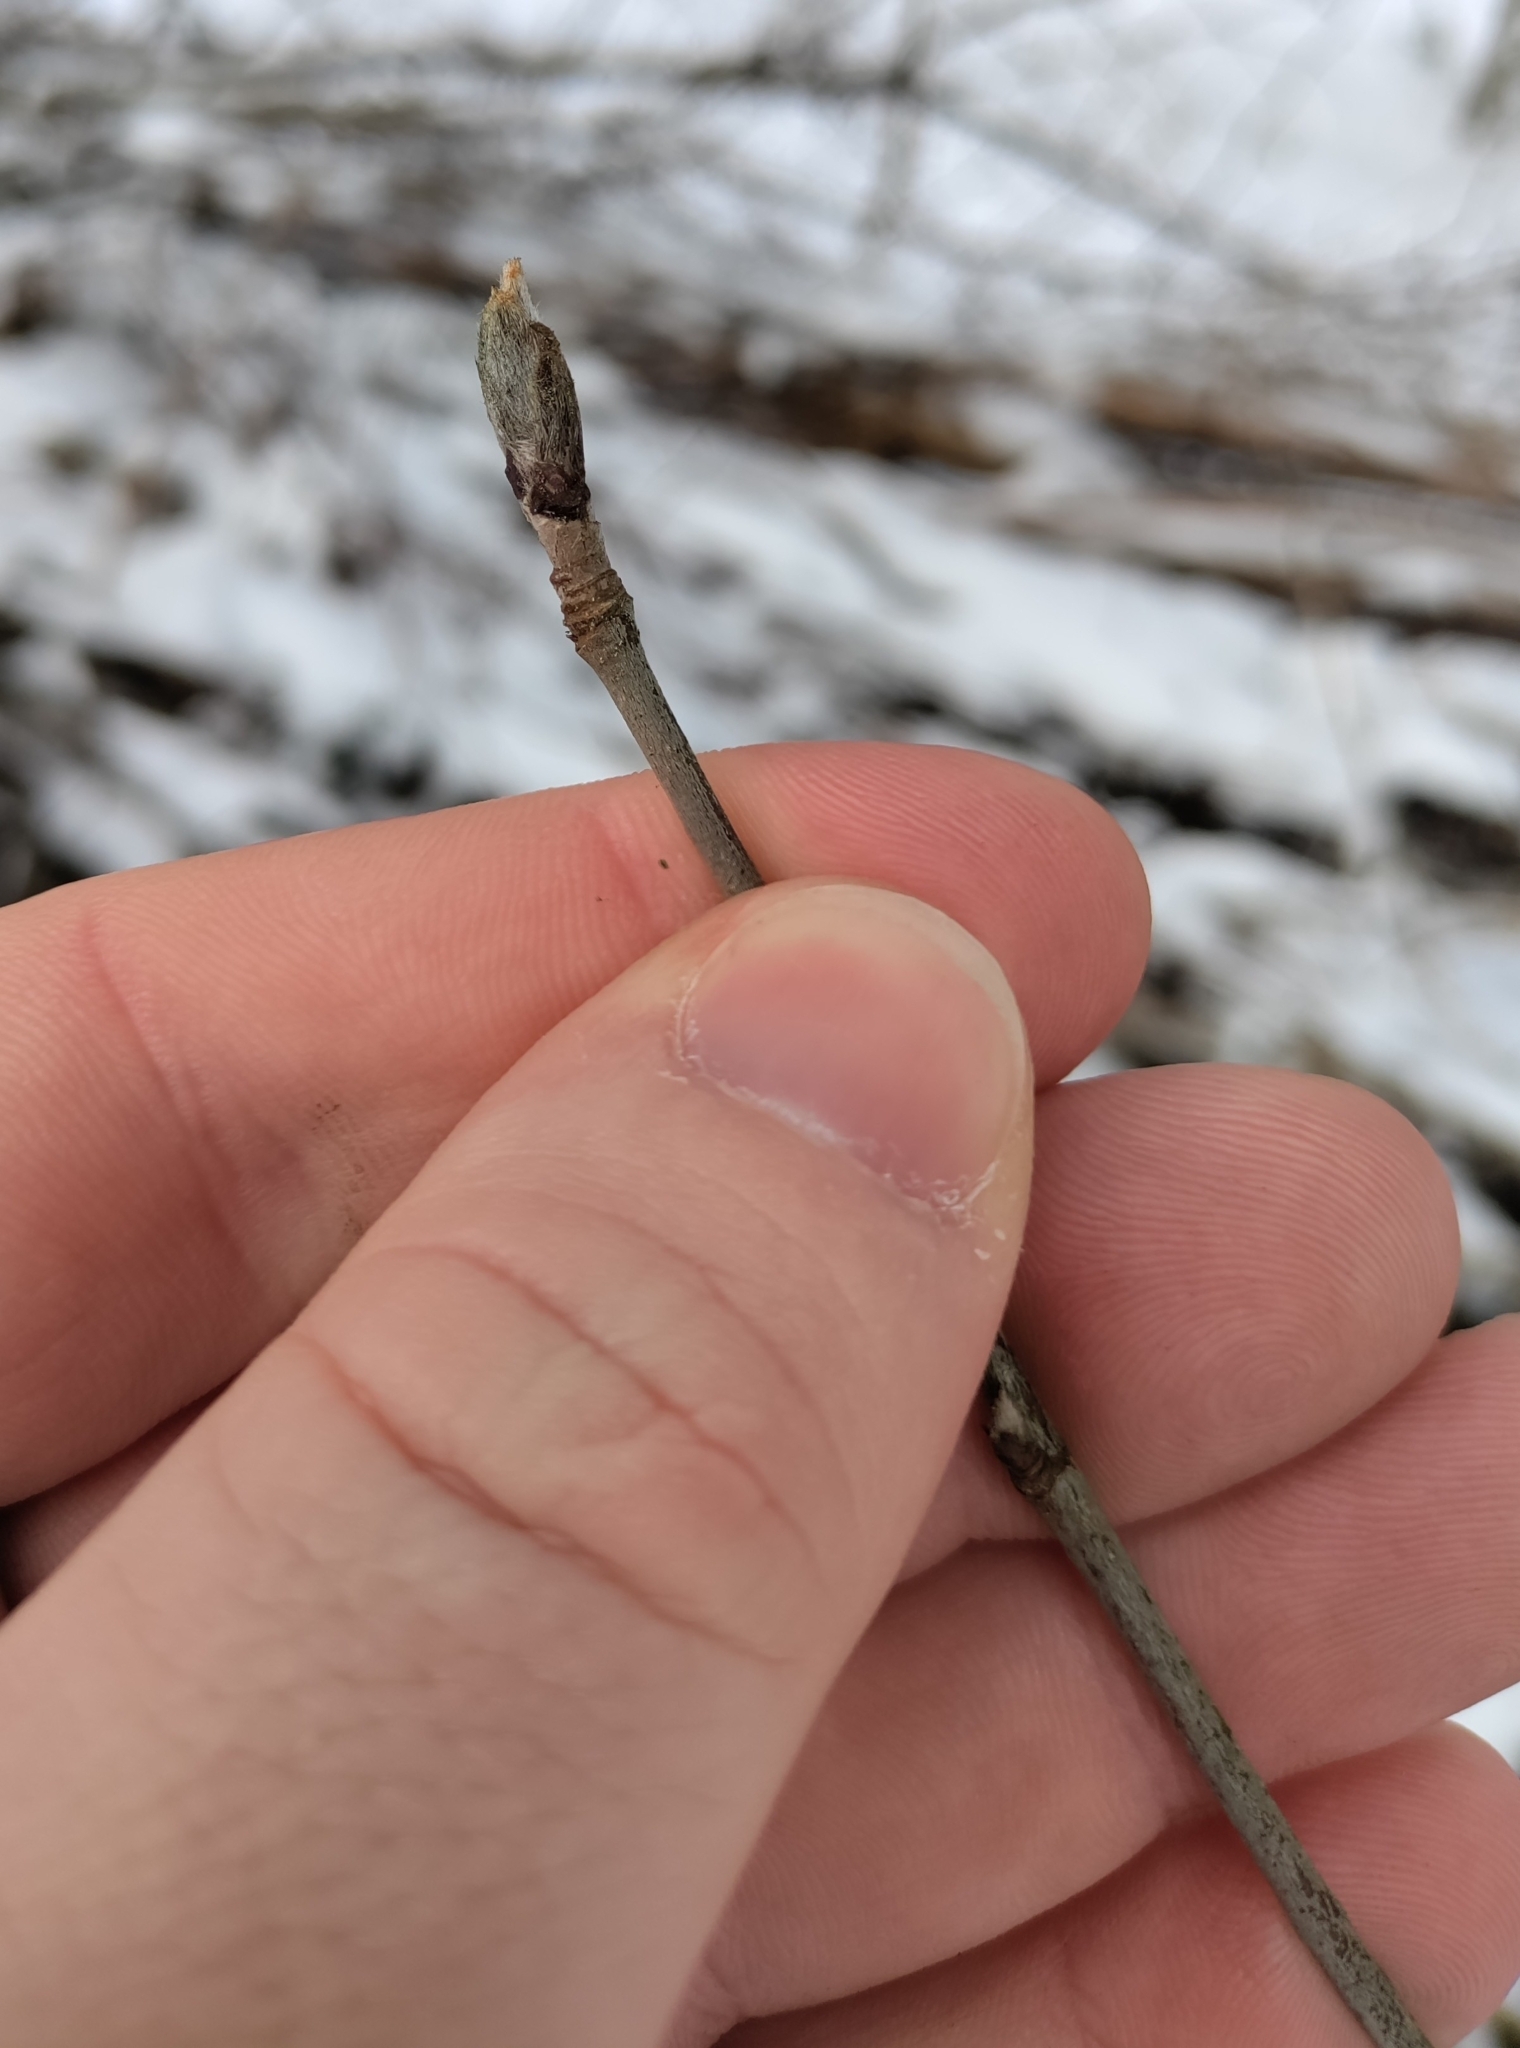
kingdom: Plantae
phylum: Tracheophyta
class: Magnoliopsida
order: Rosales
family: Rosaceae
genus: Sorbus
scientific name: Sorbus aucuparia
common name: Rowan
